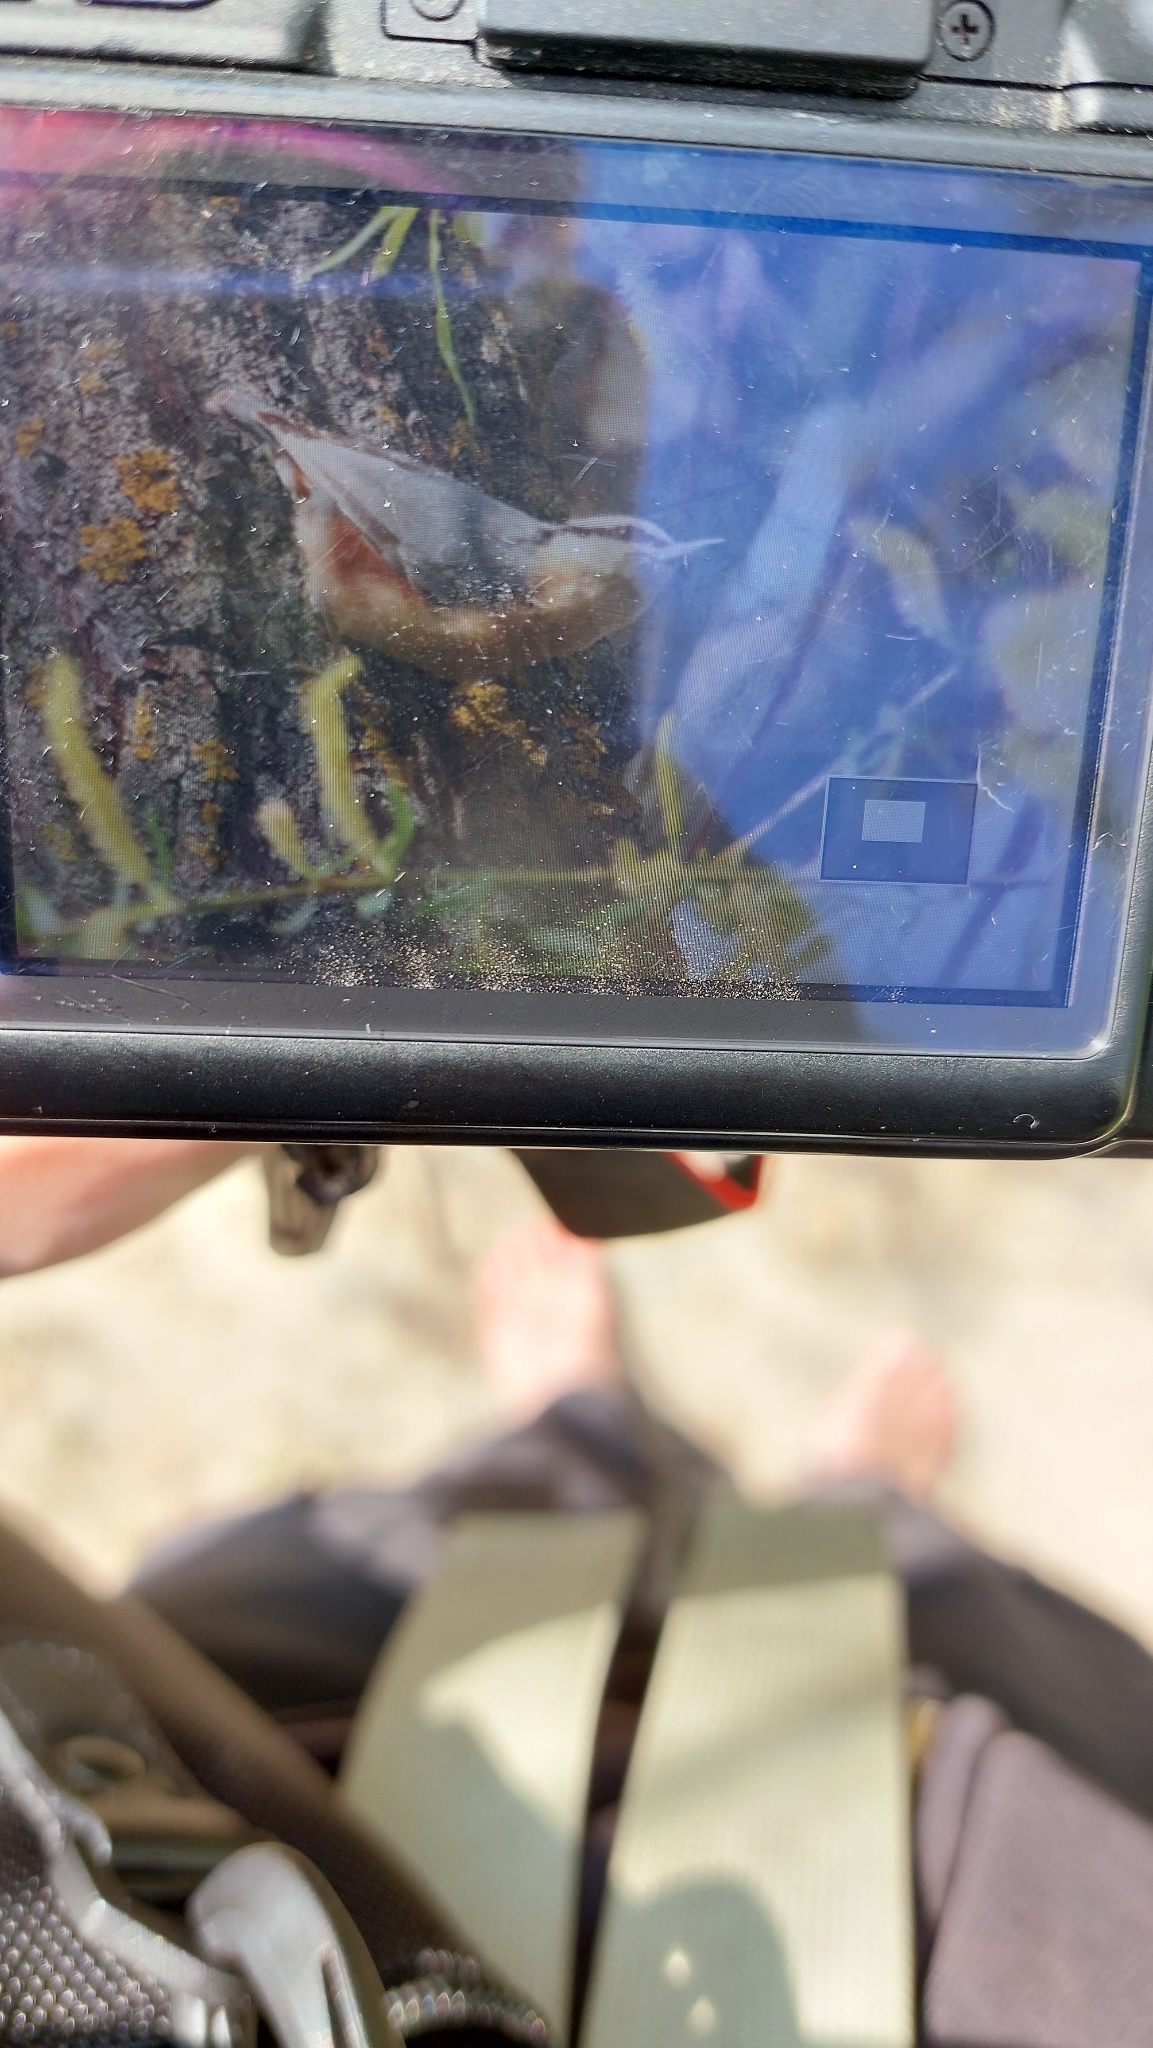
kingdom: Animalia
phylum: Chordata
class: Aves
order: Passeriformes
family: Sittidae
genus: Sitta
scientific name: Sitta europaea
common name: Eurasian nuthatch
